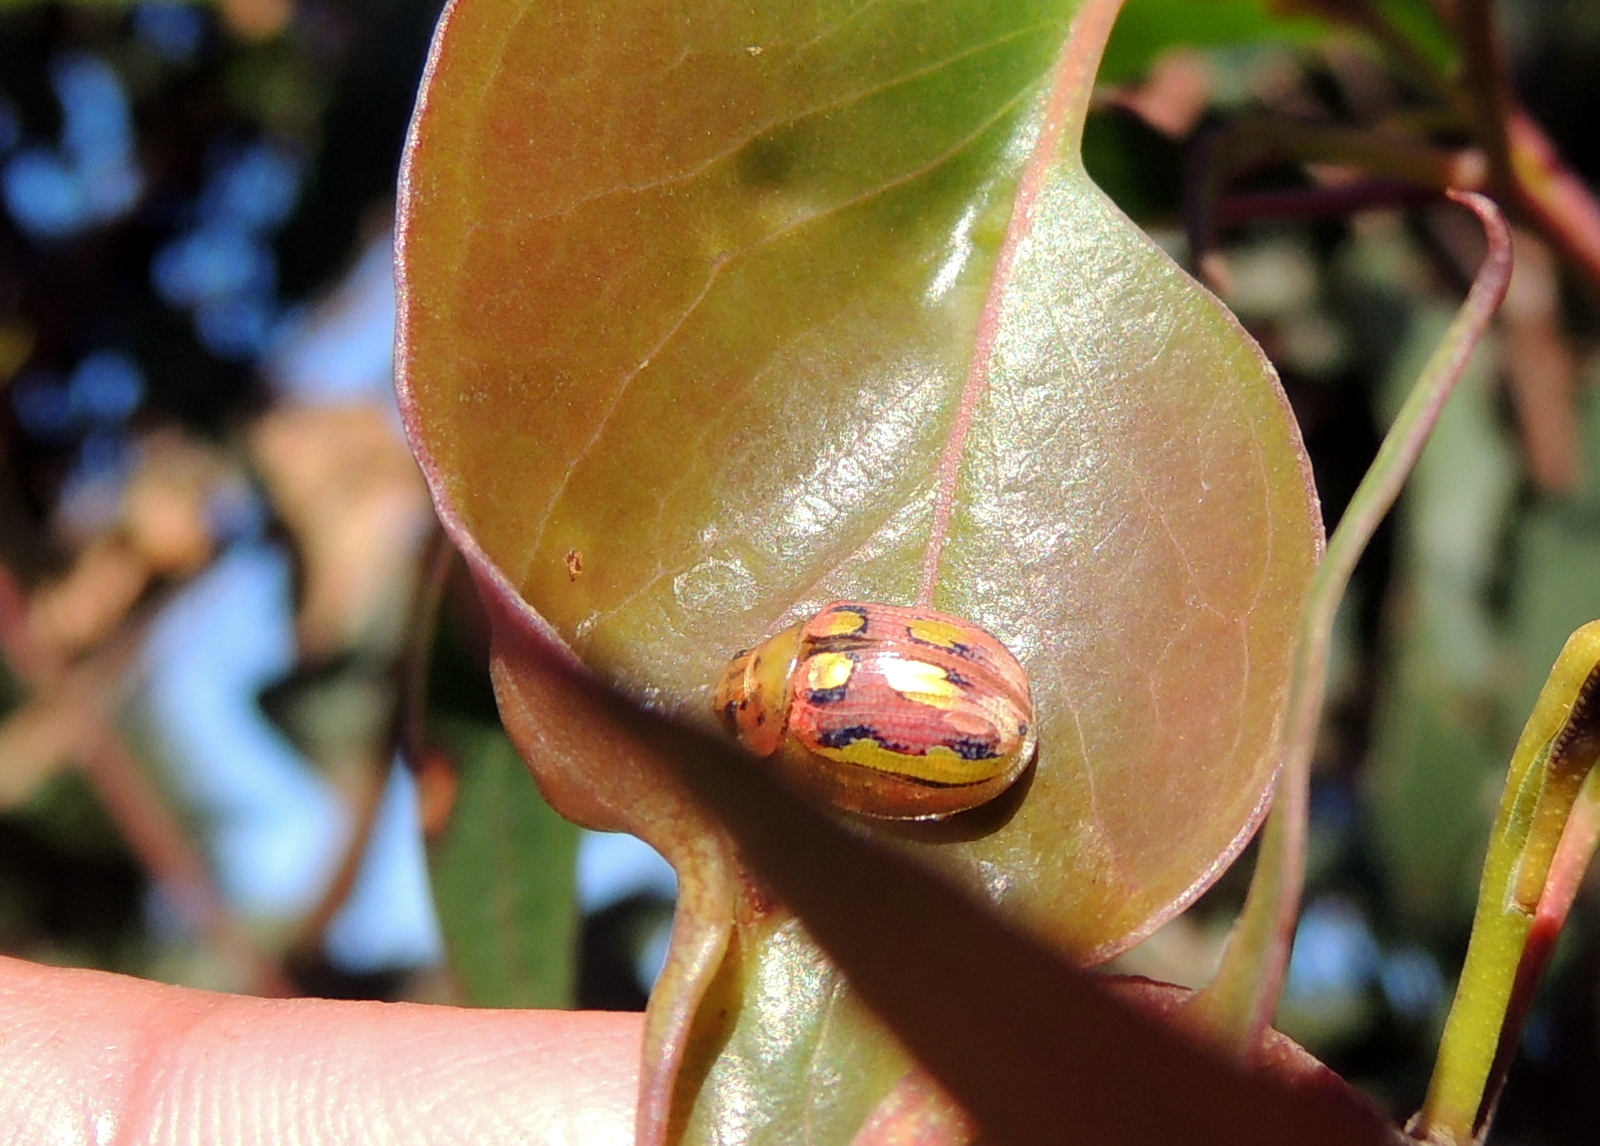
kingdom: Animalia
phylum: Arthropoda
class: Insecta
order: Coleoptera
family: Chrysomelidae
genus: Paropsisterna
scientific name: Paropsisterna
